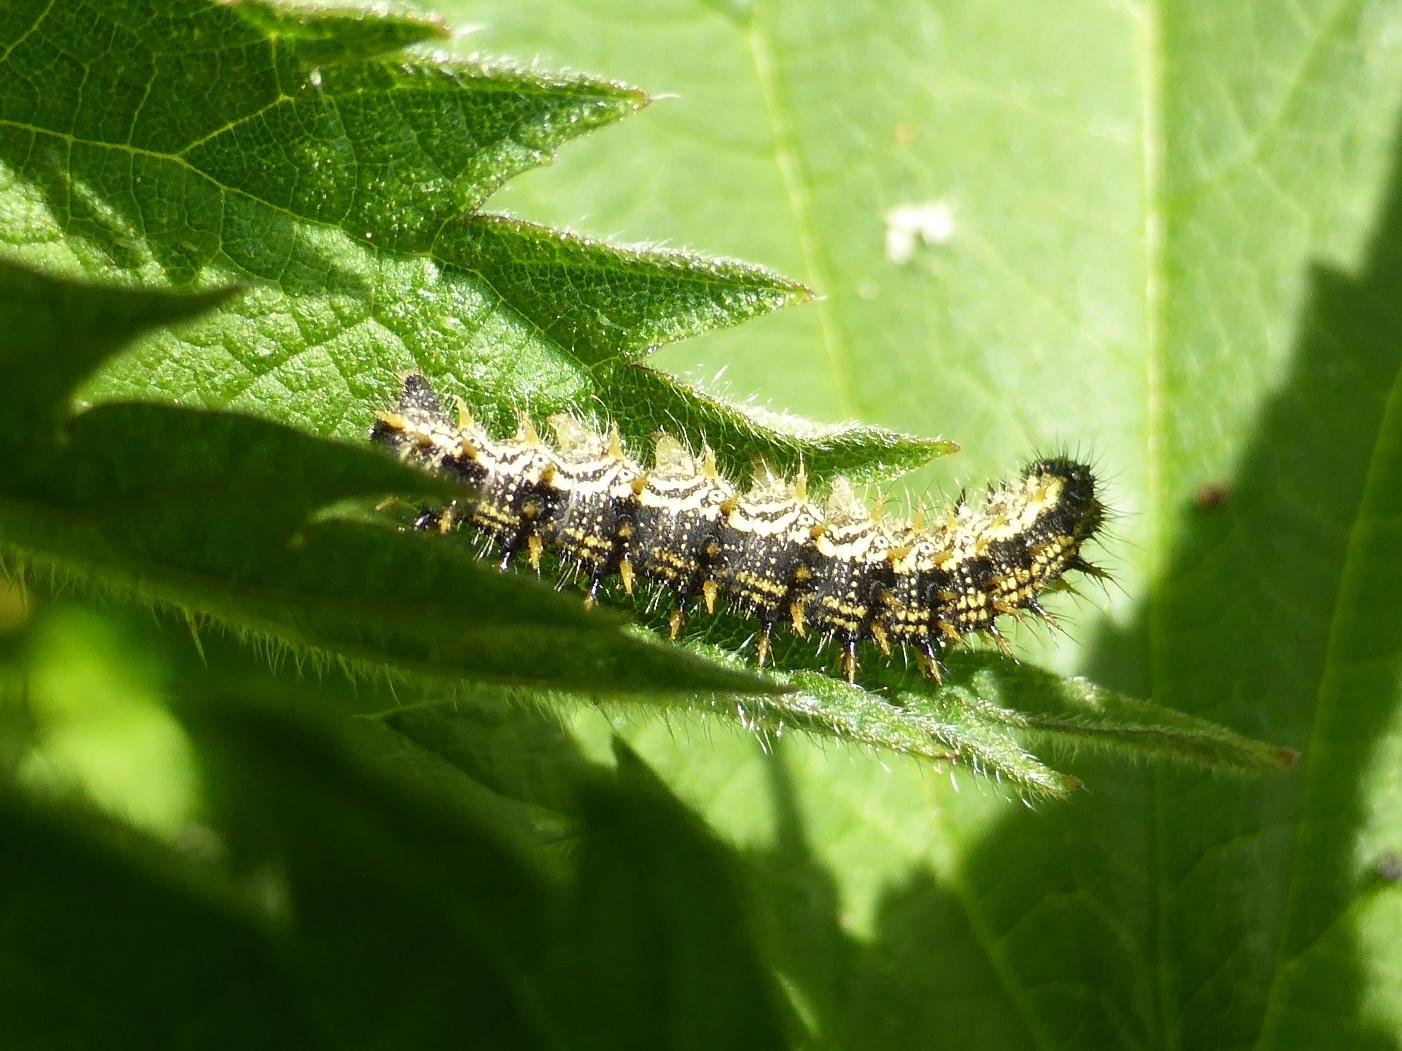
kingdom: Animalia
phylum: Arthropoda
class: Insecta
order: Lepidoptera
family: Nymphalidae
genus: Aglais
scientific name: Aglais urticae
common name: Small tortoiseshell
